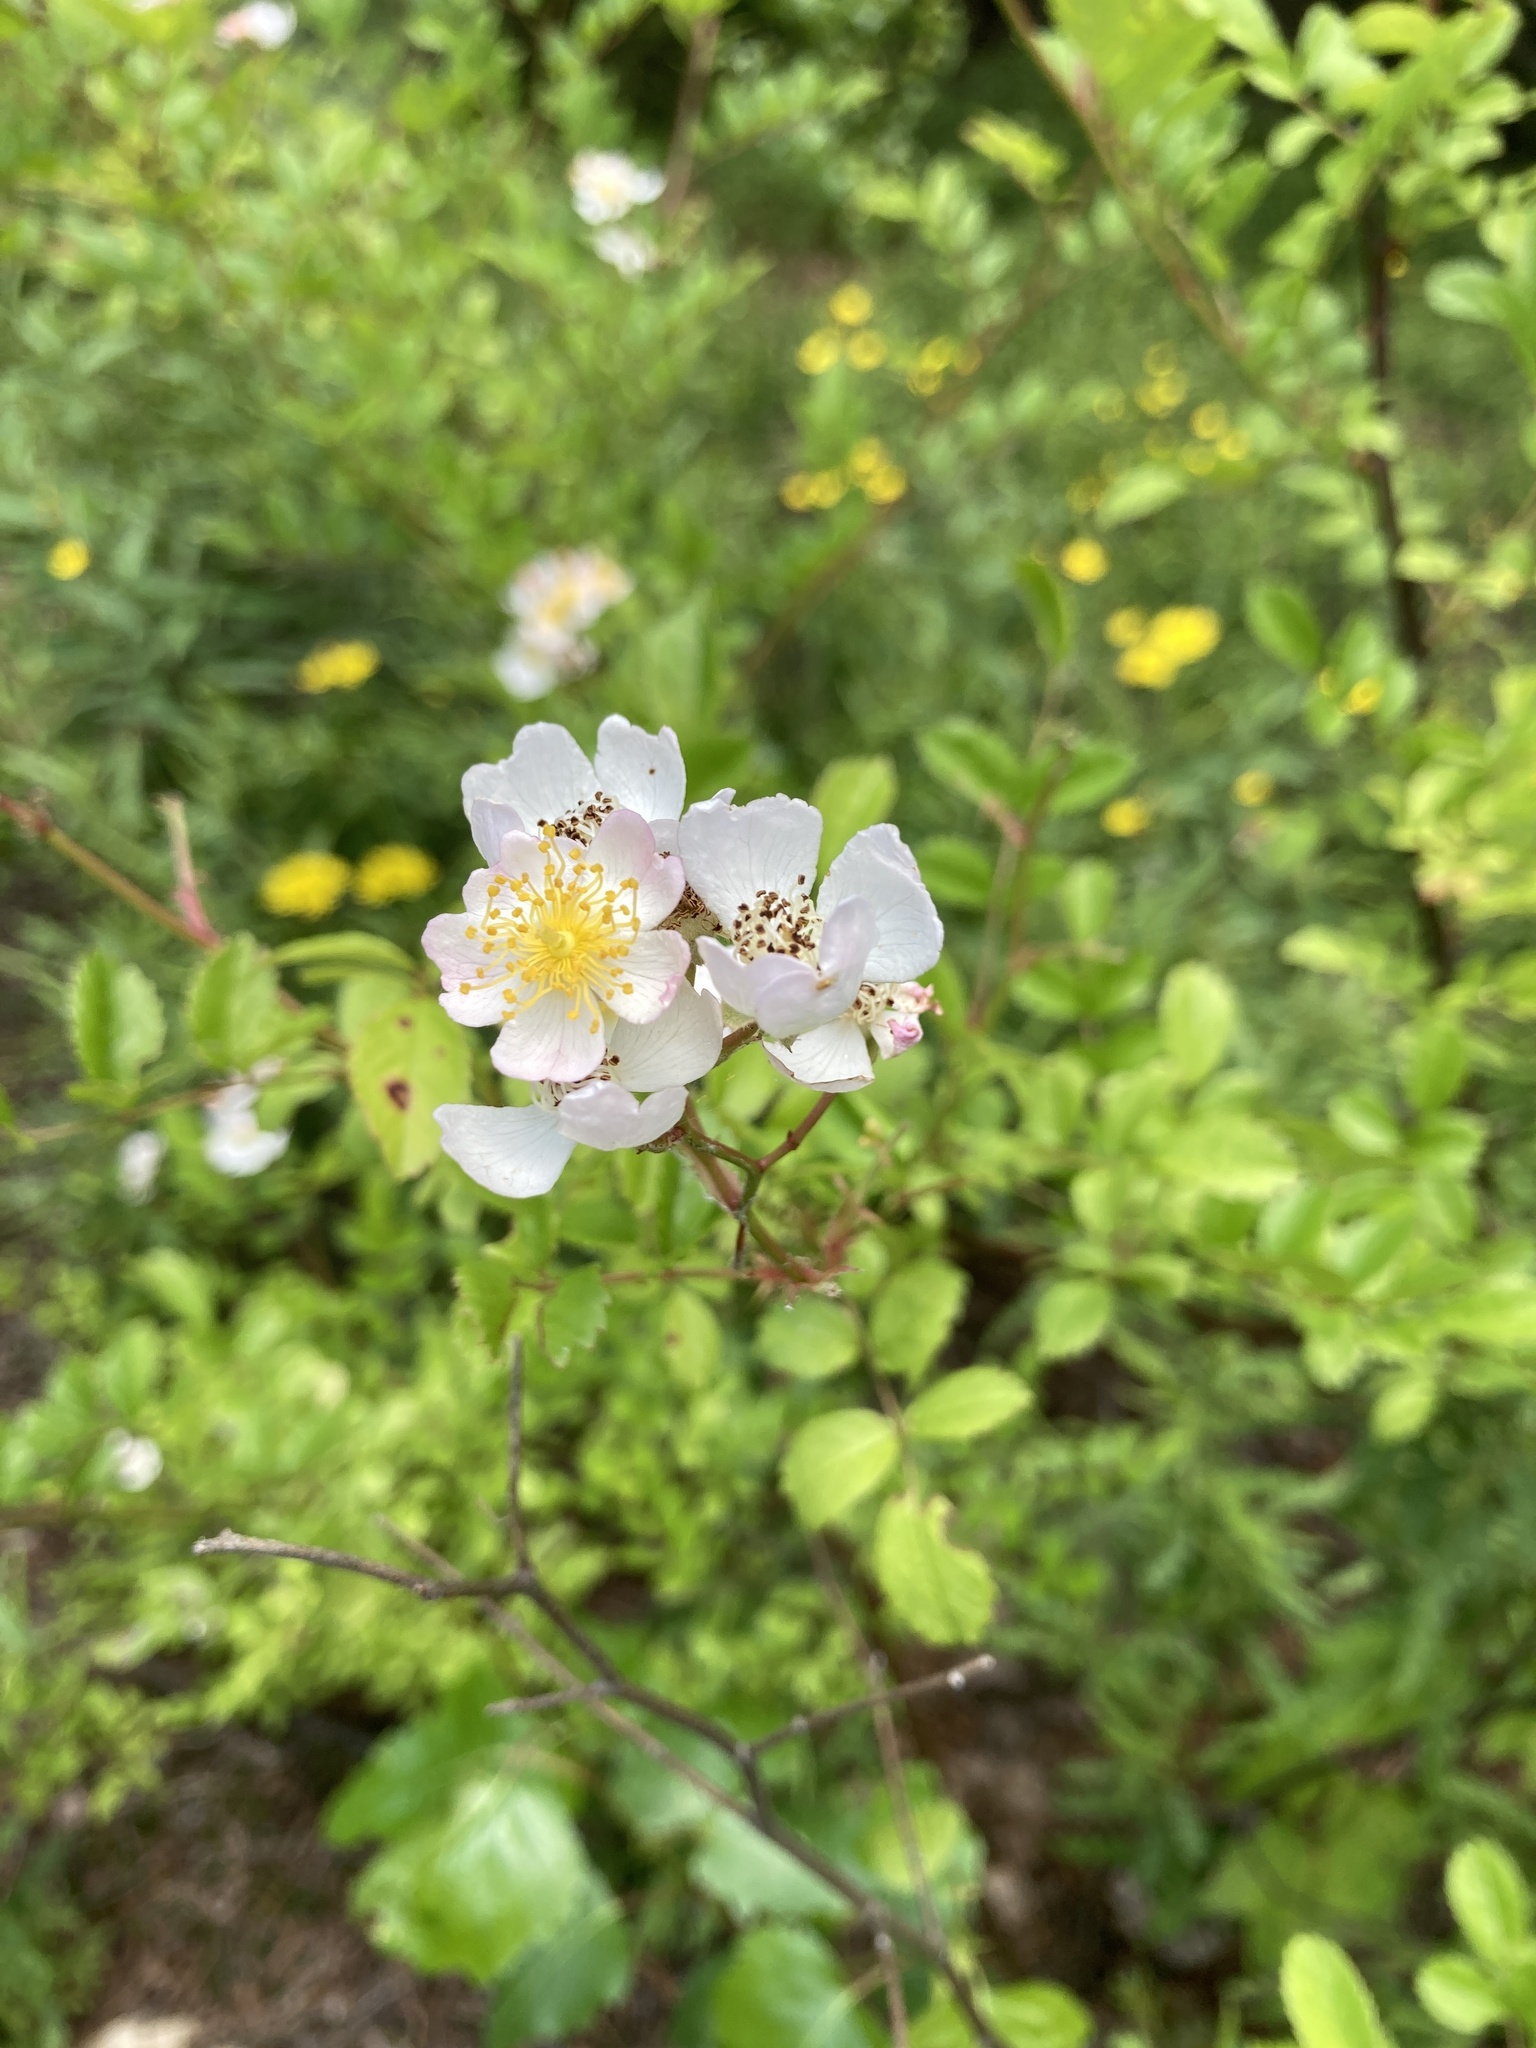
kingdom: Plantae
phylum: Tracheophyta
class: Magnoliopsida
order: Rosales
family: Rosaceae
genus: Rosa
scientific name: Rosa multiflora
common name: Multiflora rose
